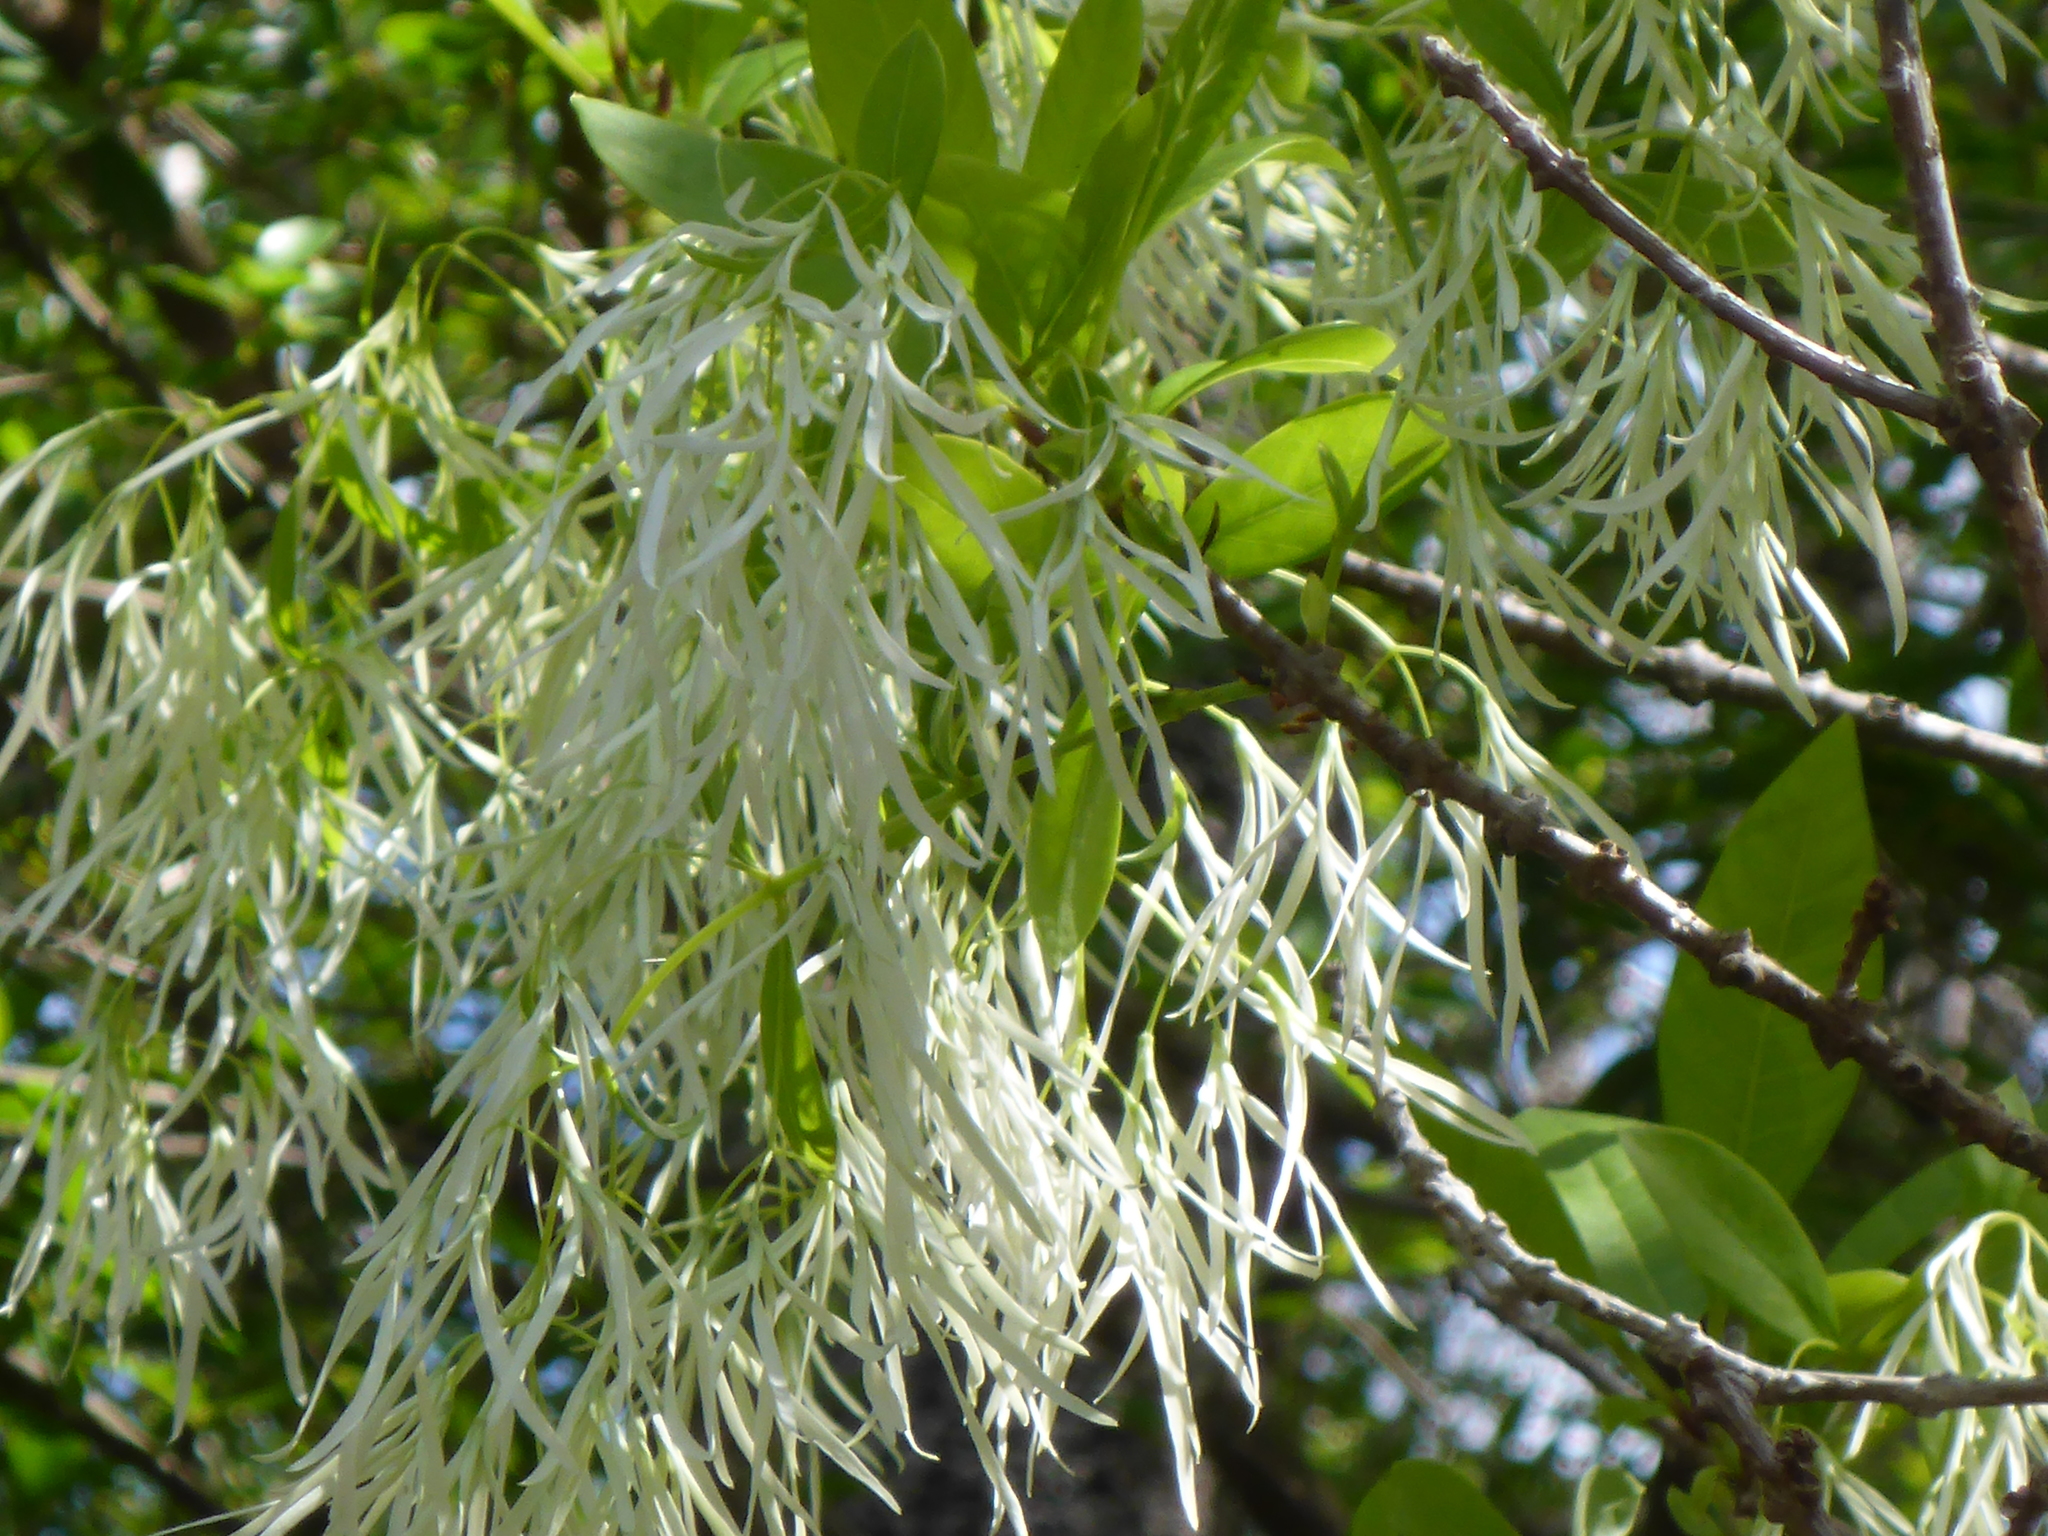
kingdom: Plantae
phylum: Tracheophyta
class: Magnoliopsida
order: Lamiales
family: Oleaceae
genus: Chionanthus
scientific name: Chionanthus virginicus
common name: American fringetree
